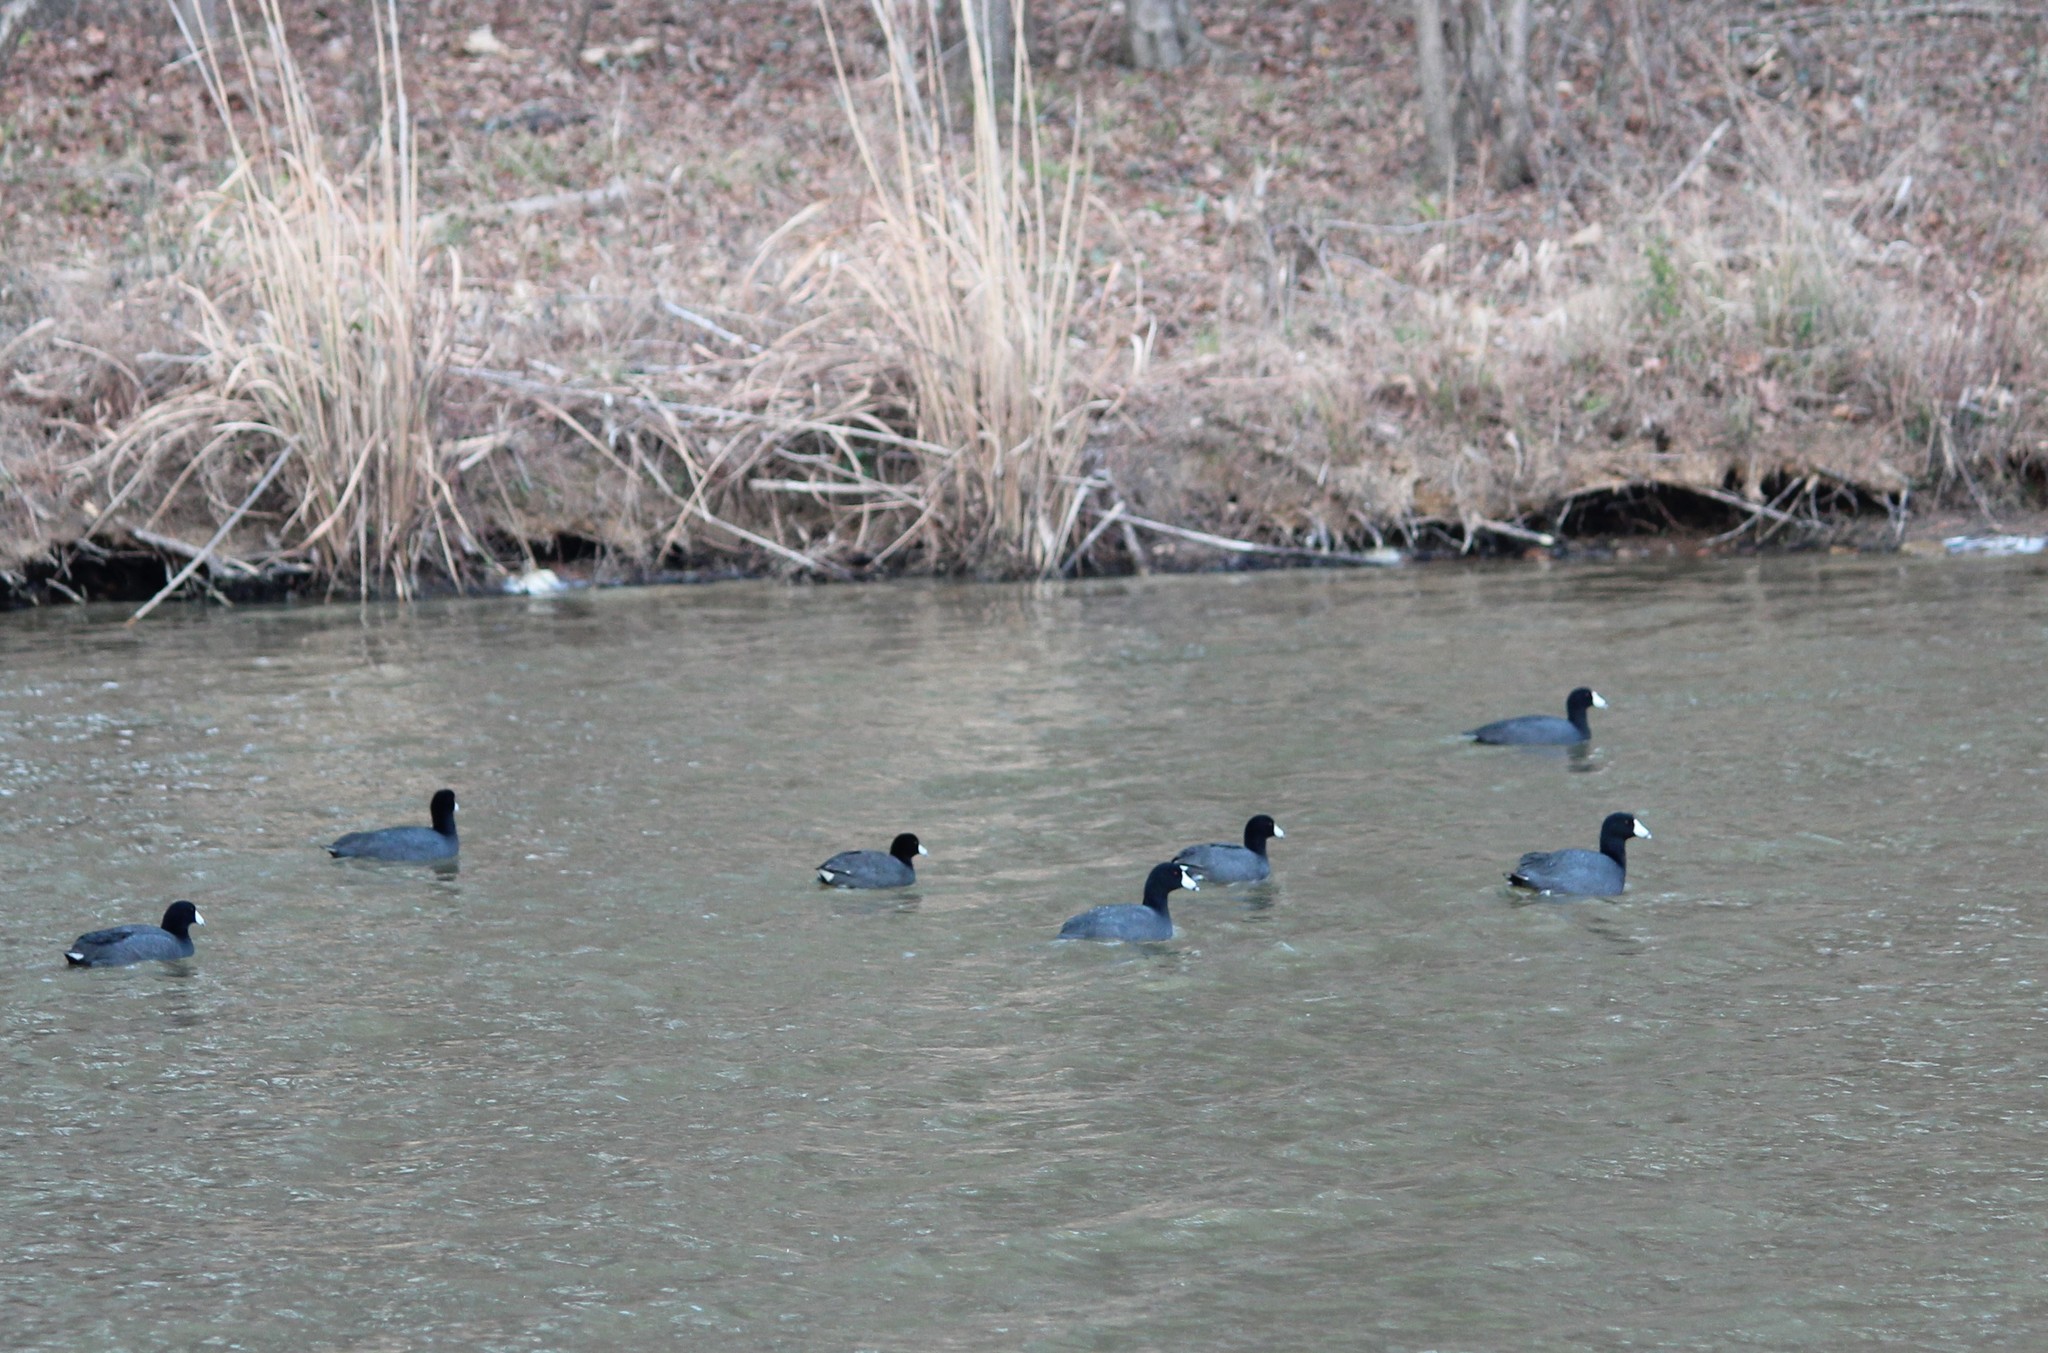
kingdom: Animalia
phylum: Chordata
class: Aves
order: Gruiformes
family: Rallidae
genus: Fulica
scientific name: Fulica americana
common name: American coot
